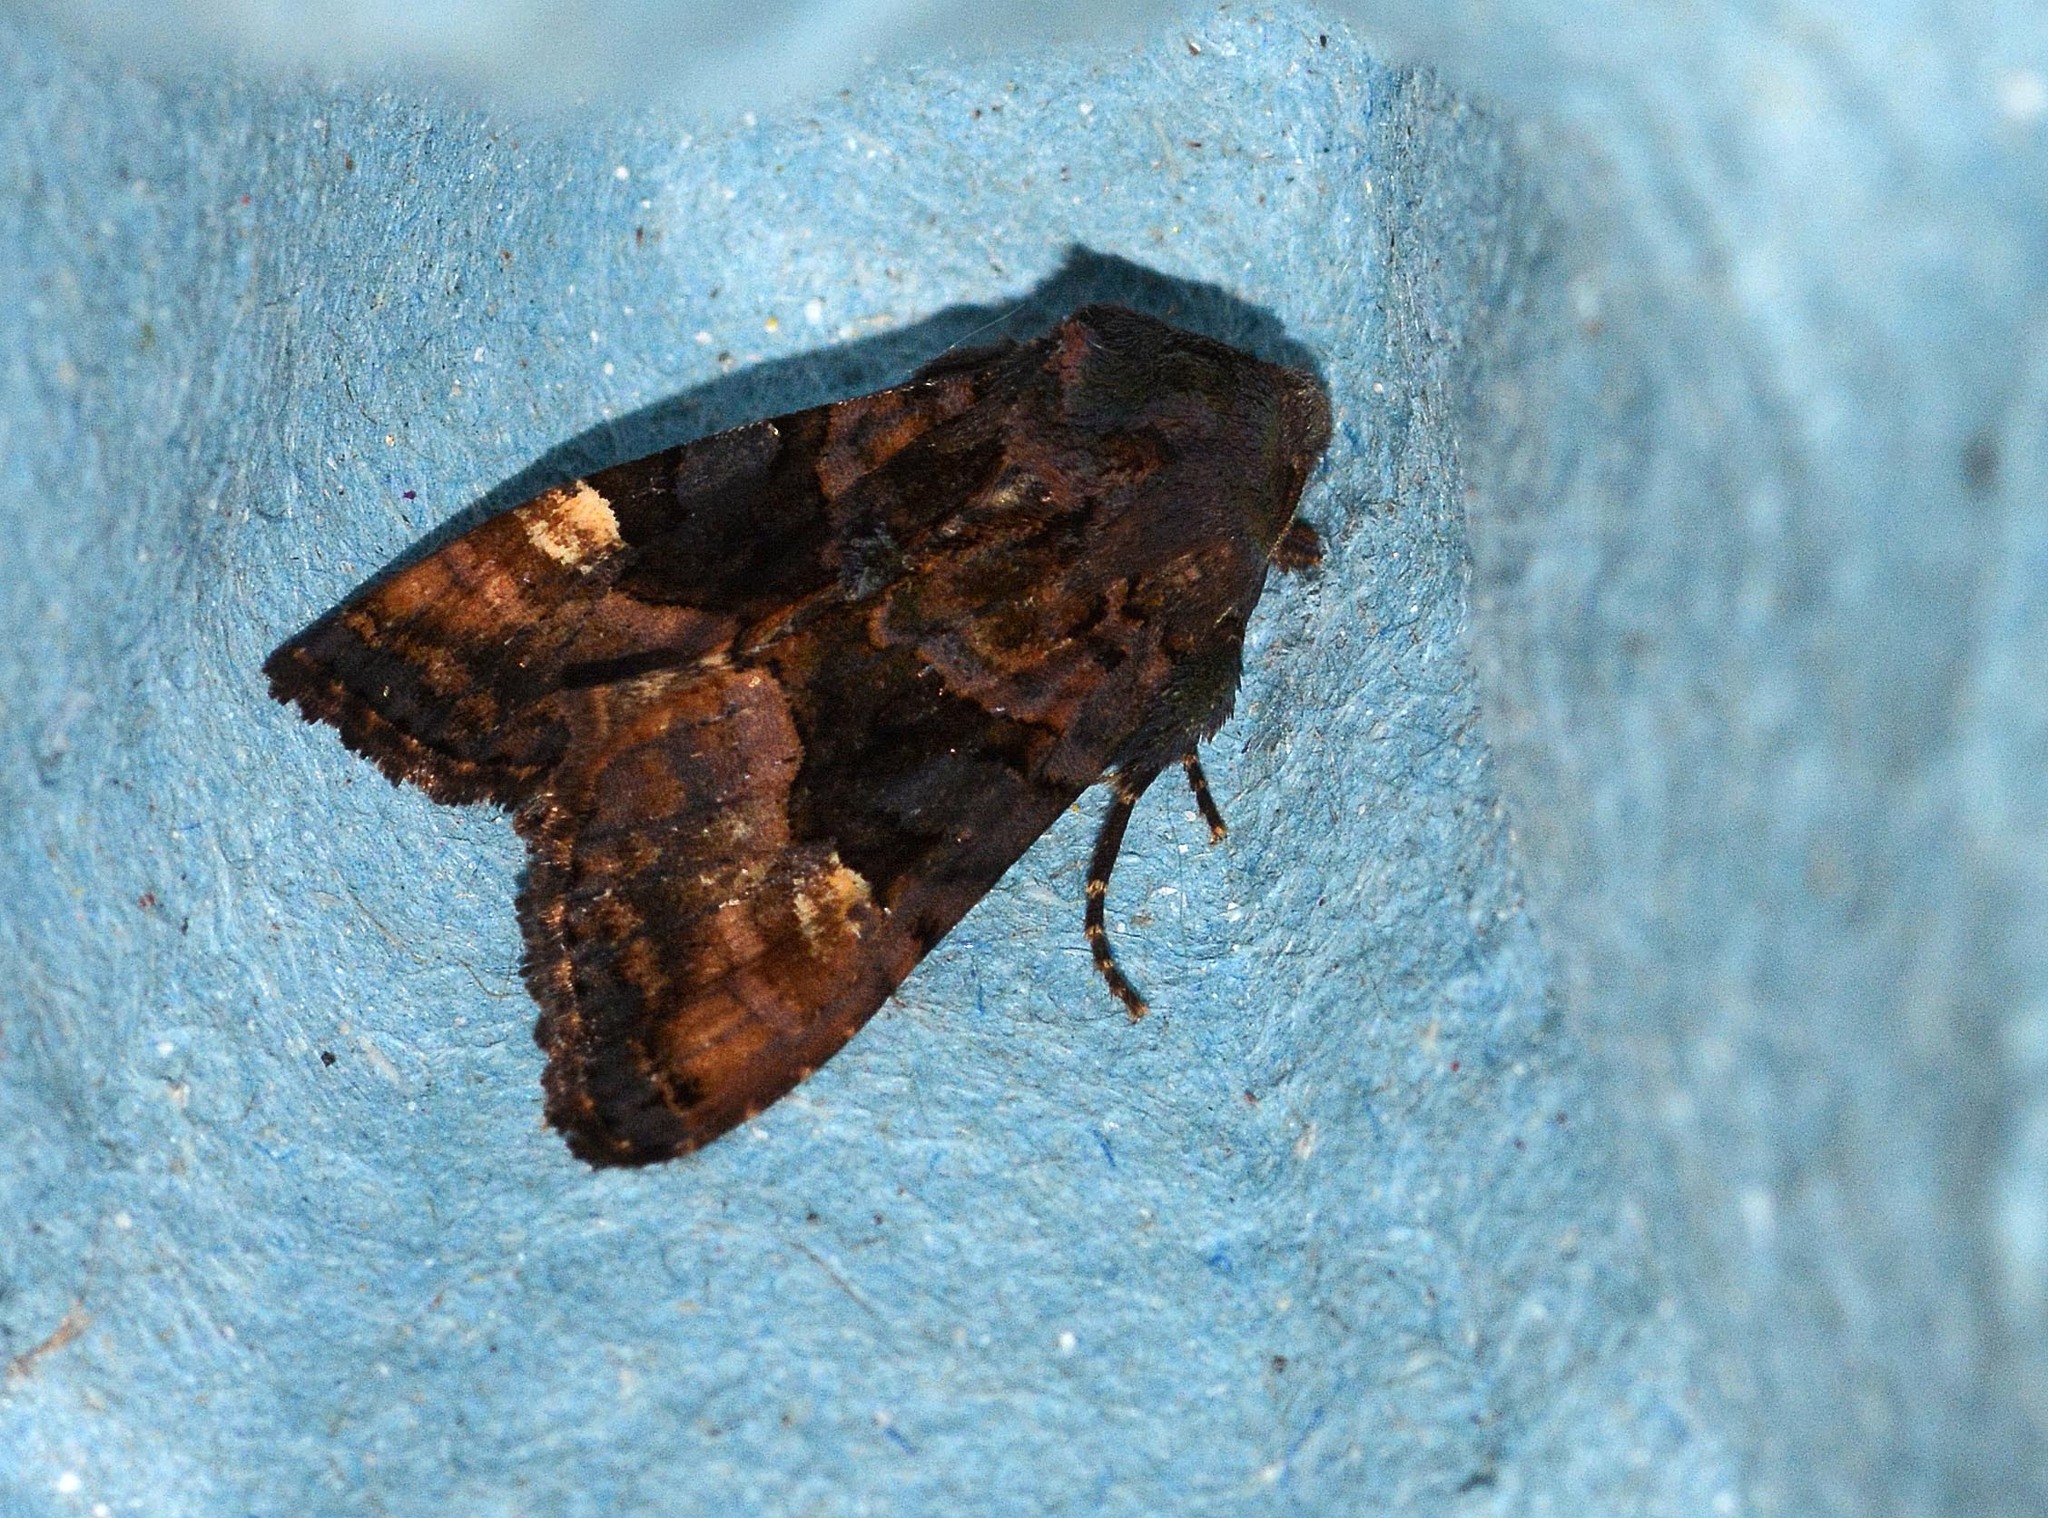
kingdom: Animalia
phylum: Arthropoda
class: Insecta
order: Lepidoptera
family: Noctuidae
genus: Euplexia
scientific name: Euplexia lucipara
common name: Small angle shades
